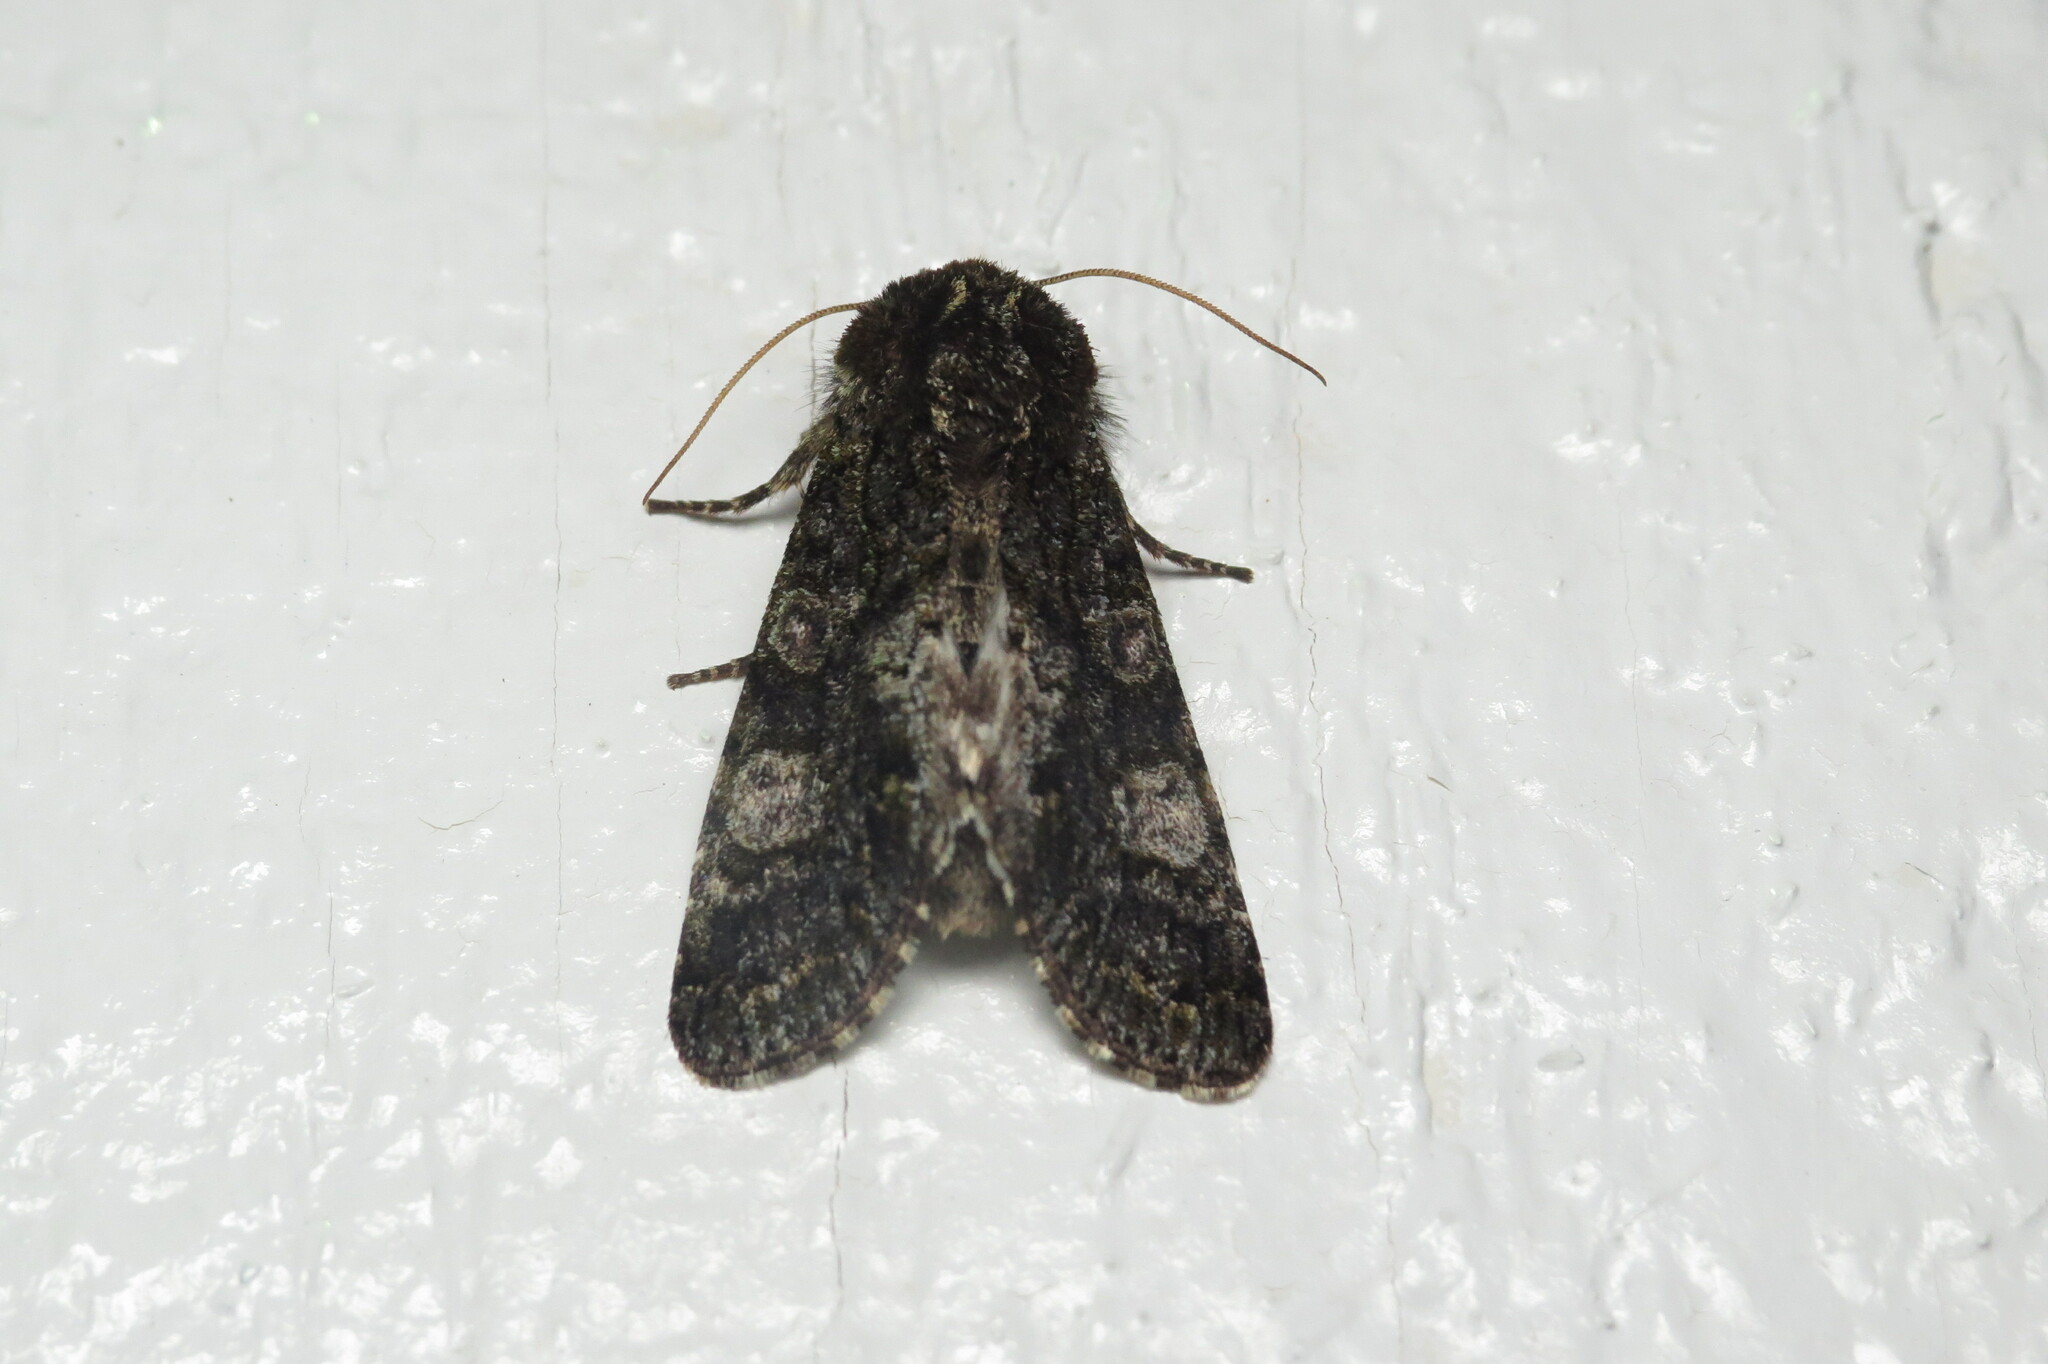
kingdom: Animalia
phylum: Arthropoda
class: Insecta
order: Lepidoptera
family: Noctuidae
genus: Psaphida
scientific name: Psaphida grotei
